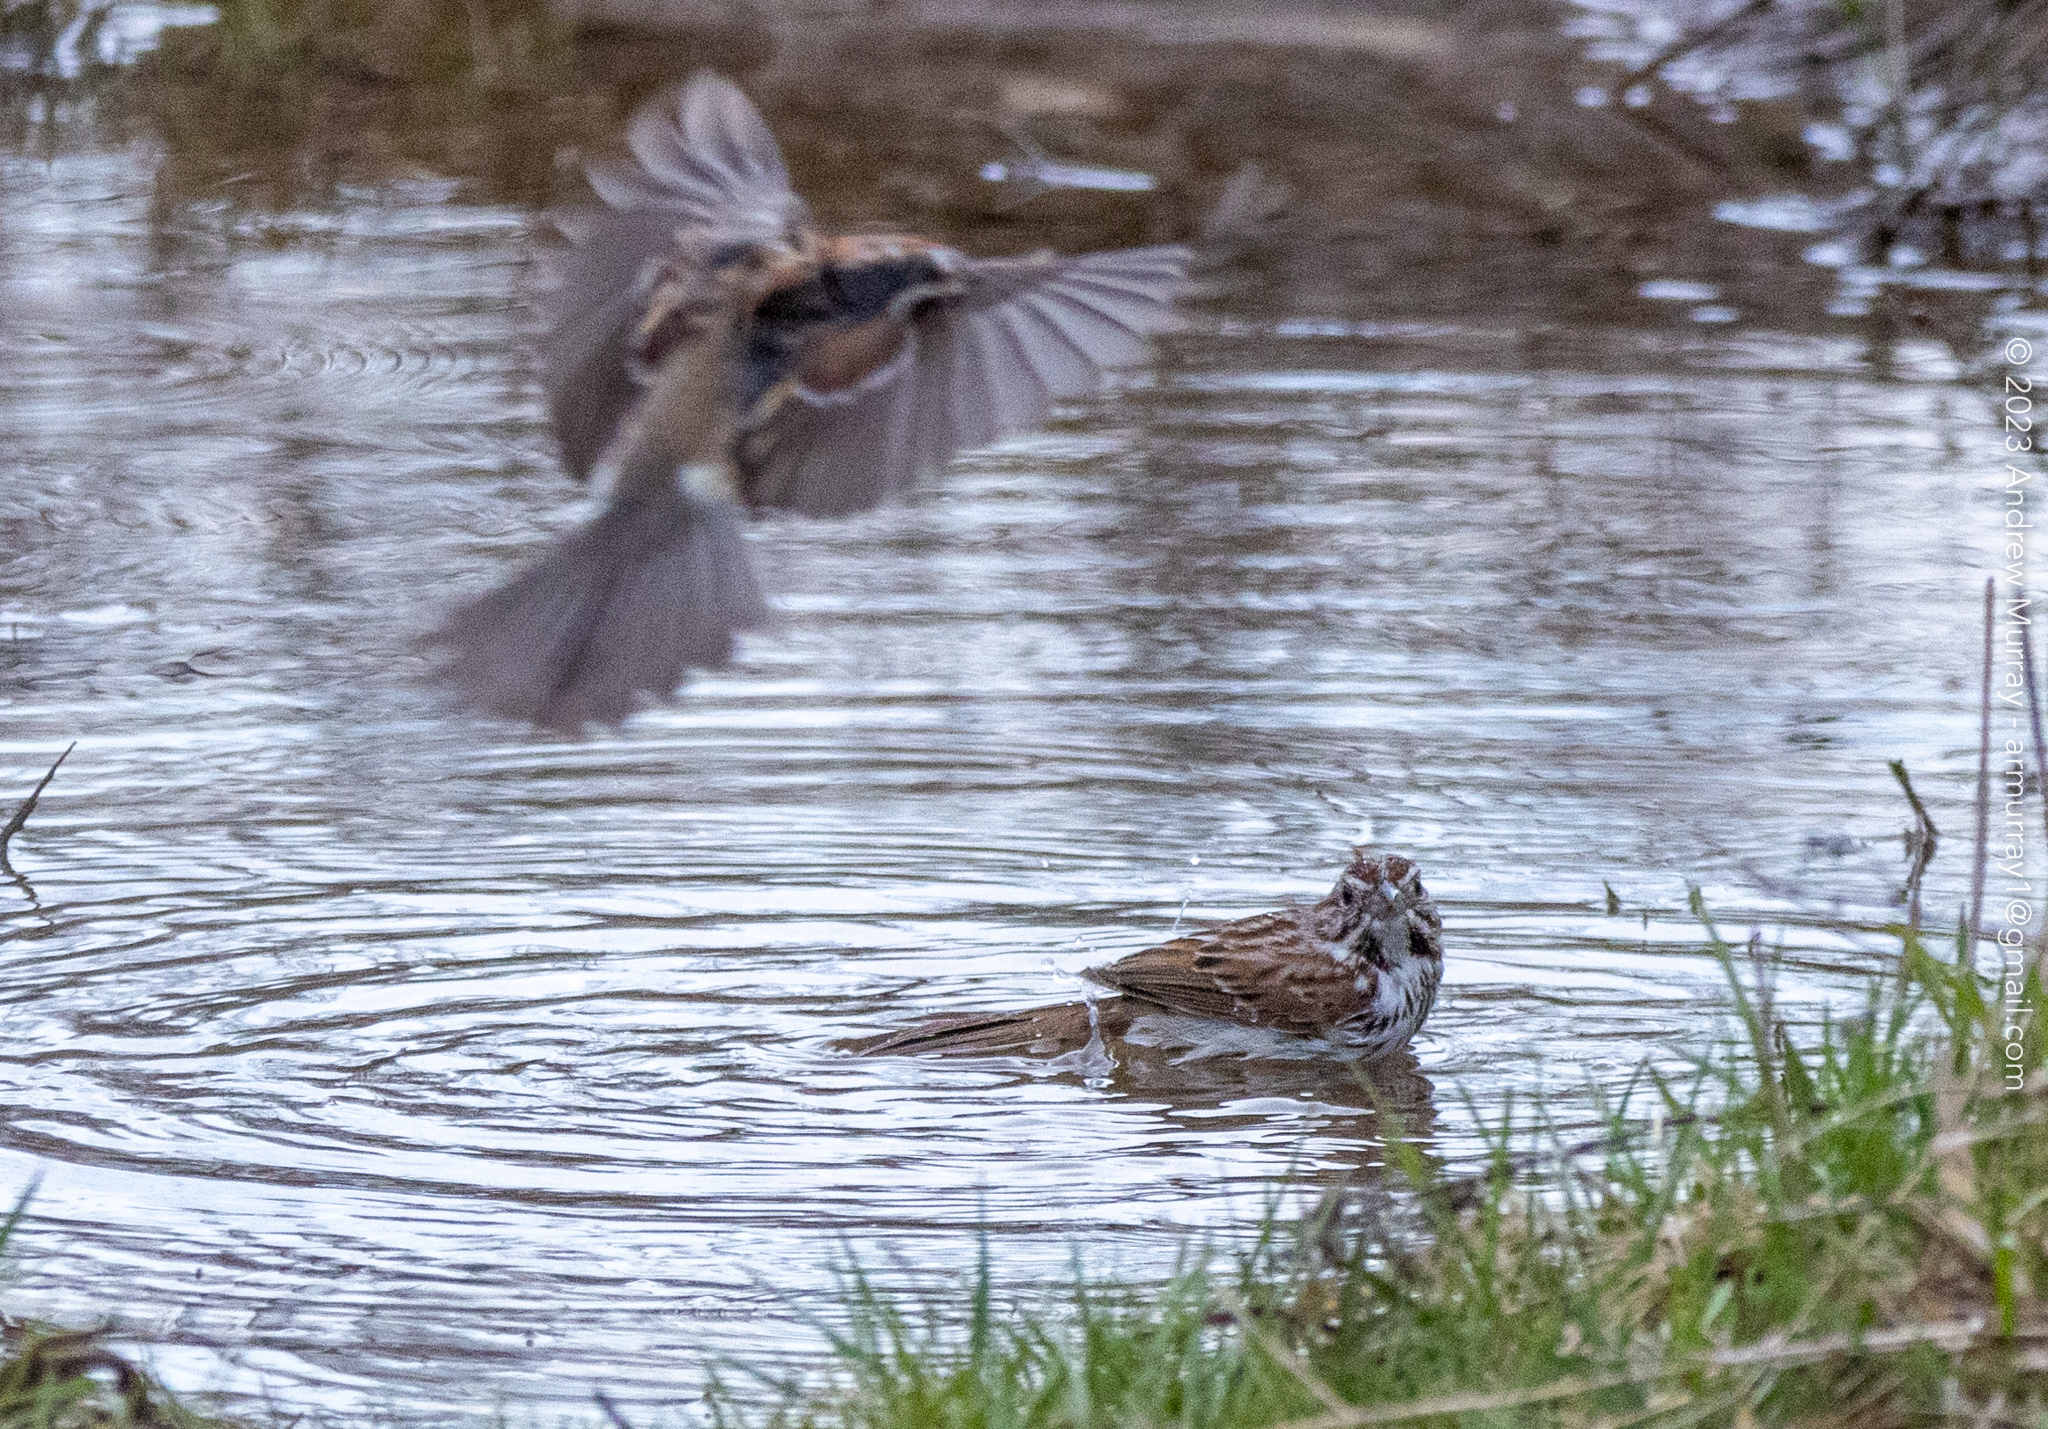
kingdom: Animalia
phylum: Chordata
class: Aves
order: Passeriformes
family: Passerellidae
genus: Melospiza
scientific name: Melospiza melodia
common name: Song sparrow
